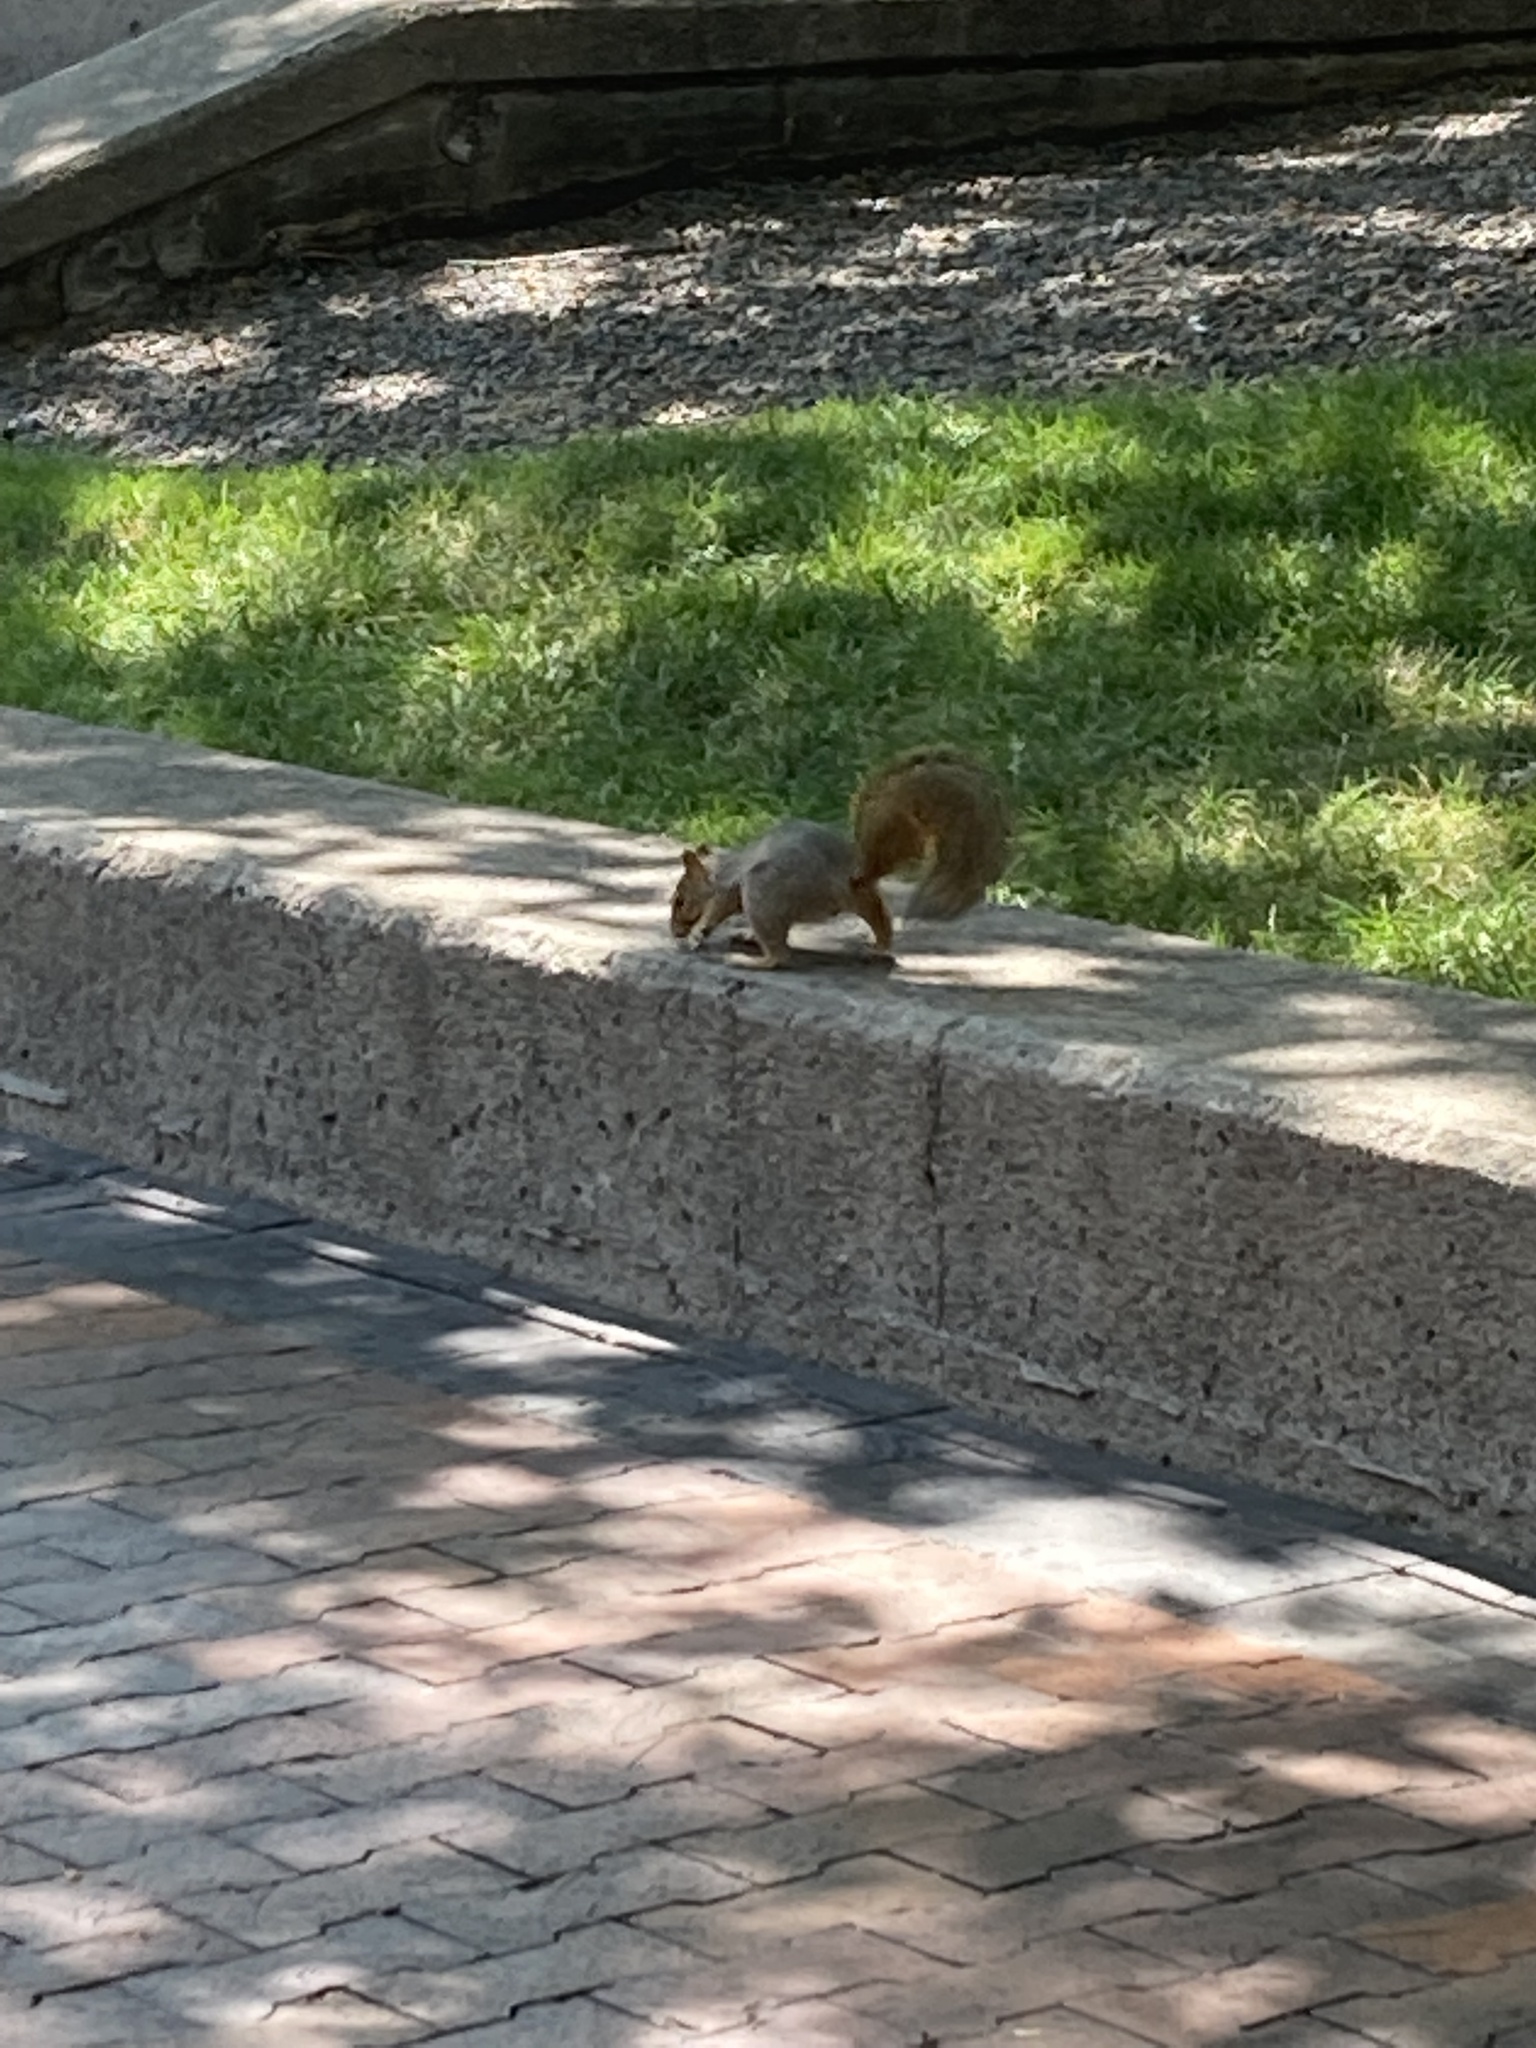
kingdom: Animalia
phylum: Chordata
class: Mammalia
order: Rodentia
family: Sciuridae
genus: Sciurus
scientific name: Sciurus niger
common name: Fox squirrel
